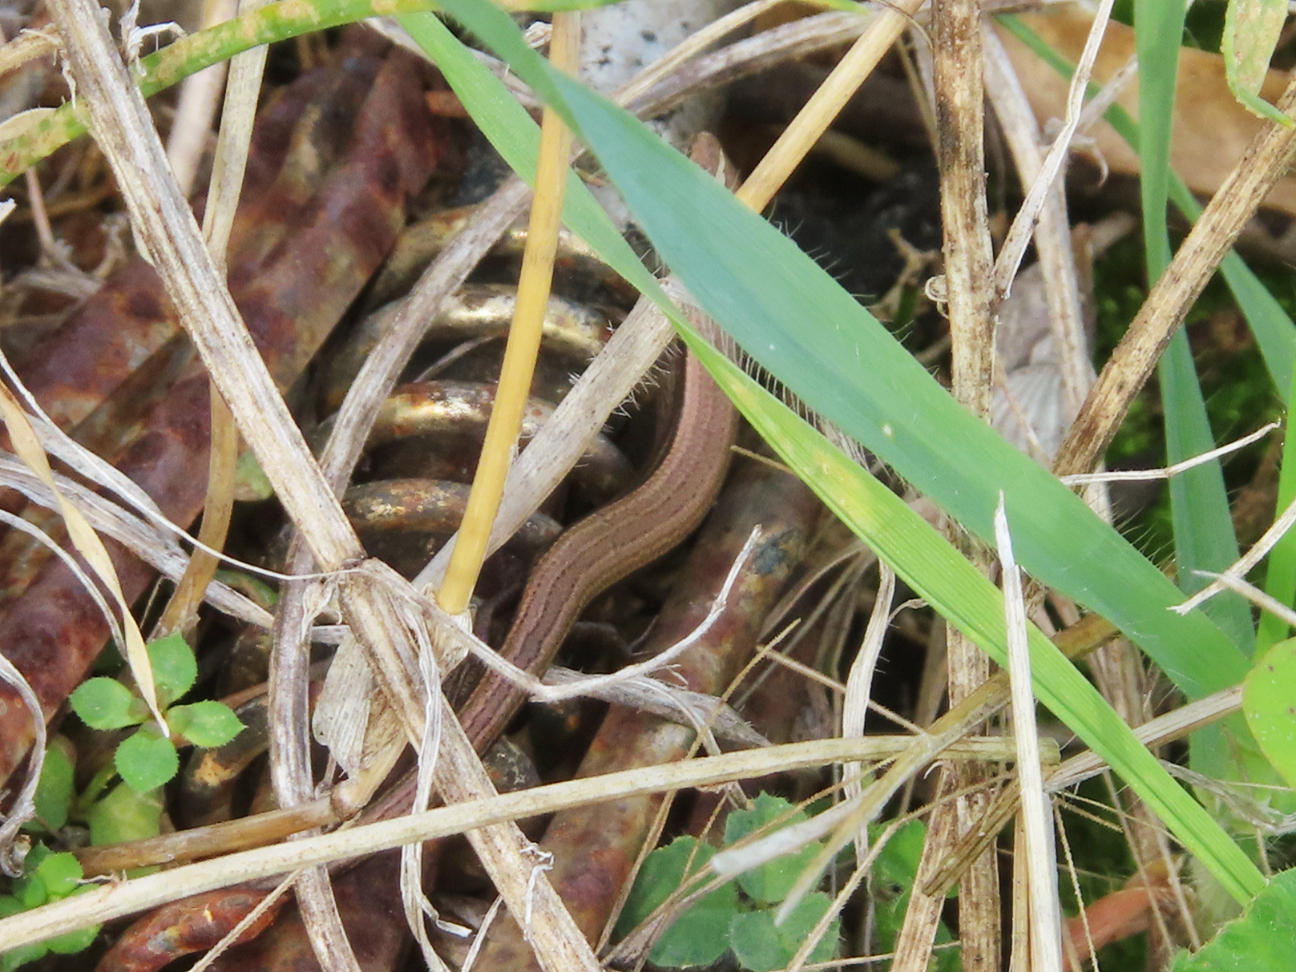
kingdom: Animalia
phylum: Chordata
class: Squamata
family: Scincidae
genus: Ablepharus
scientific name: Ablepharus kitaibelii
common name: Juniper skink
